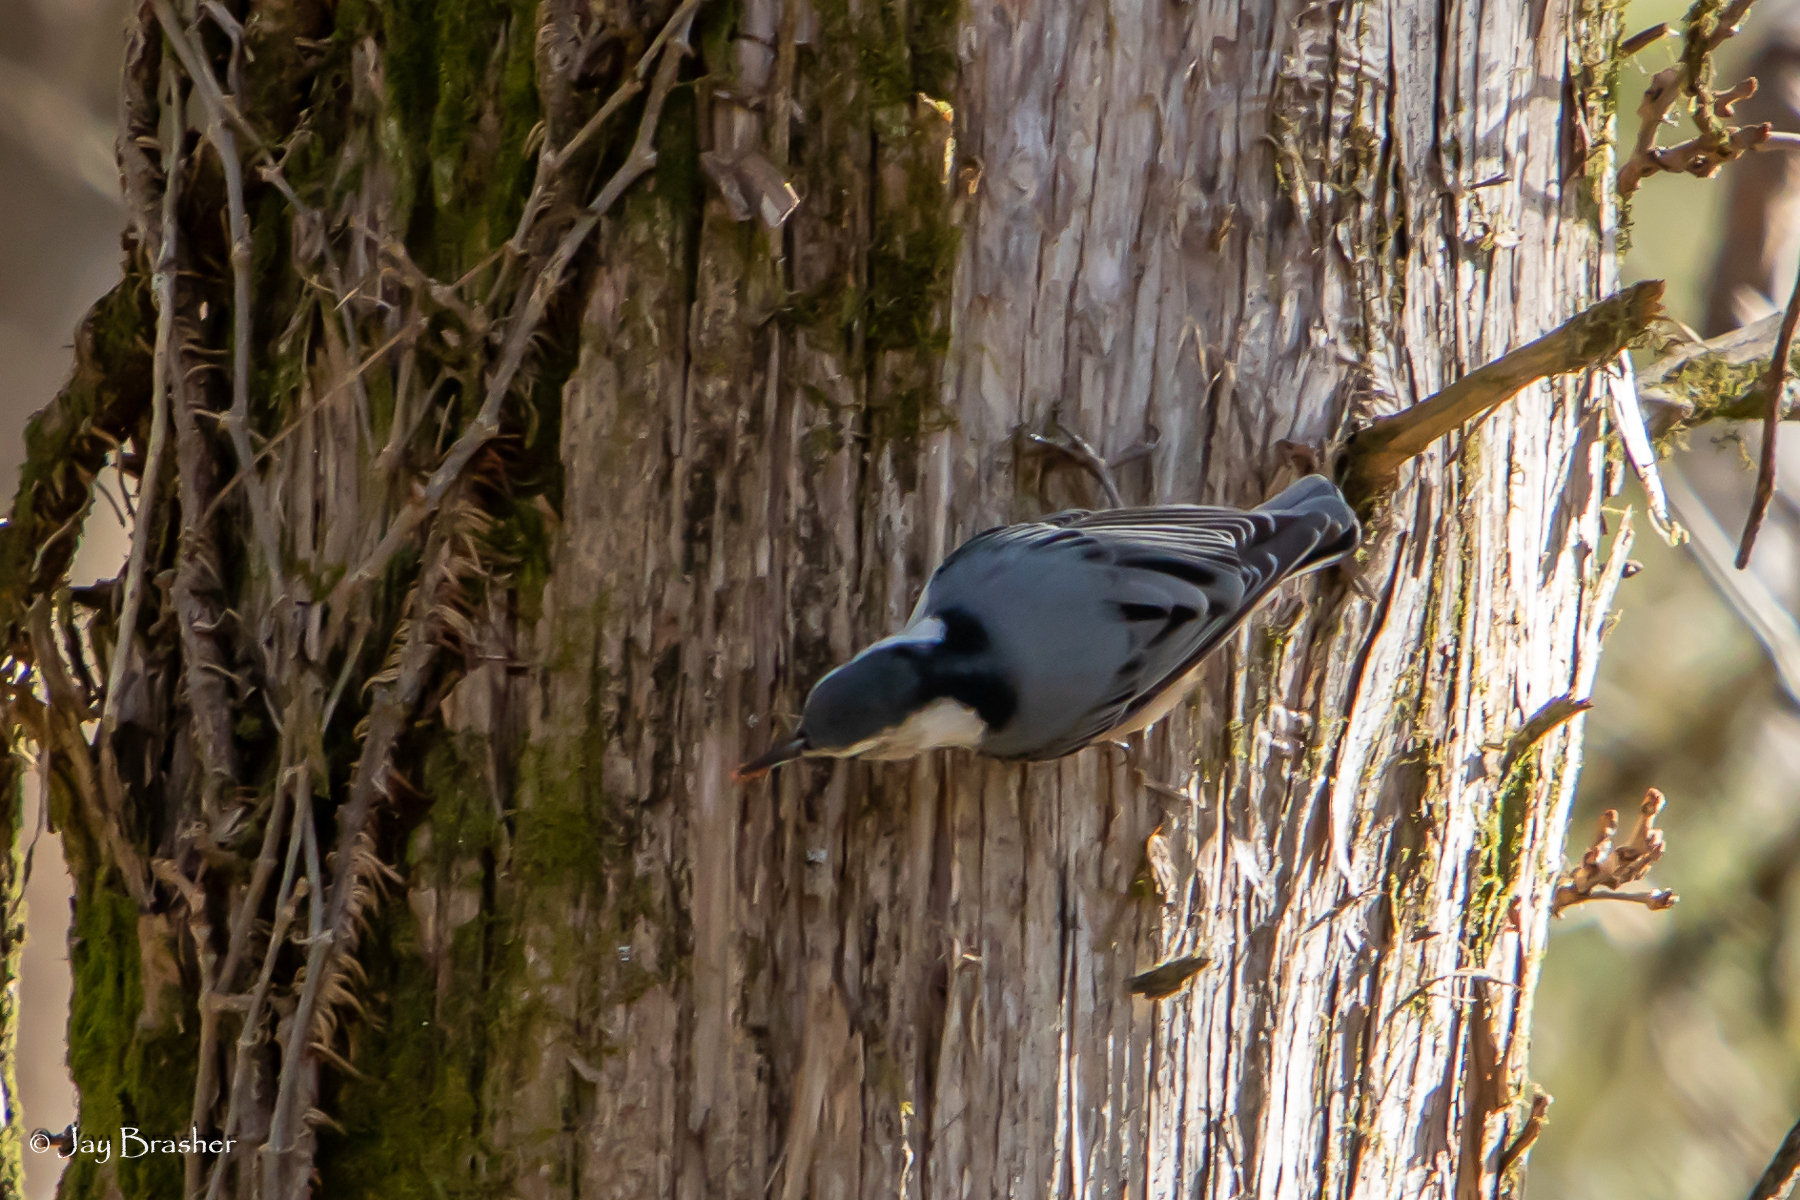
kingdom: Animalia
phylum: Chordata
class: Aves
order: Passeriformes
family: Sittidae
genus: Sitta
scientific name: Sitta carolinensis
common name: White-breasted nuthatch
